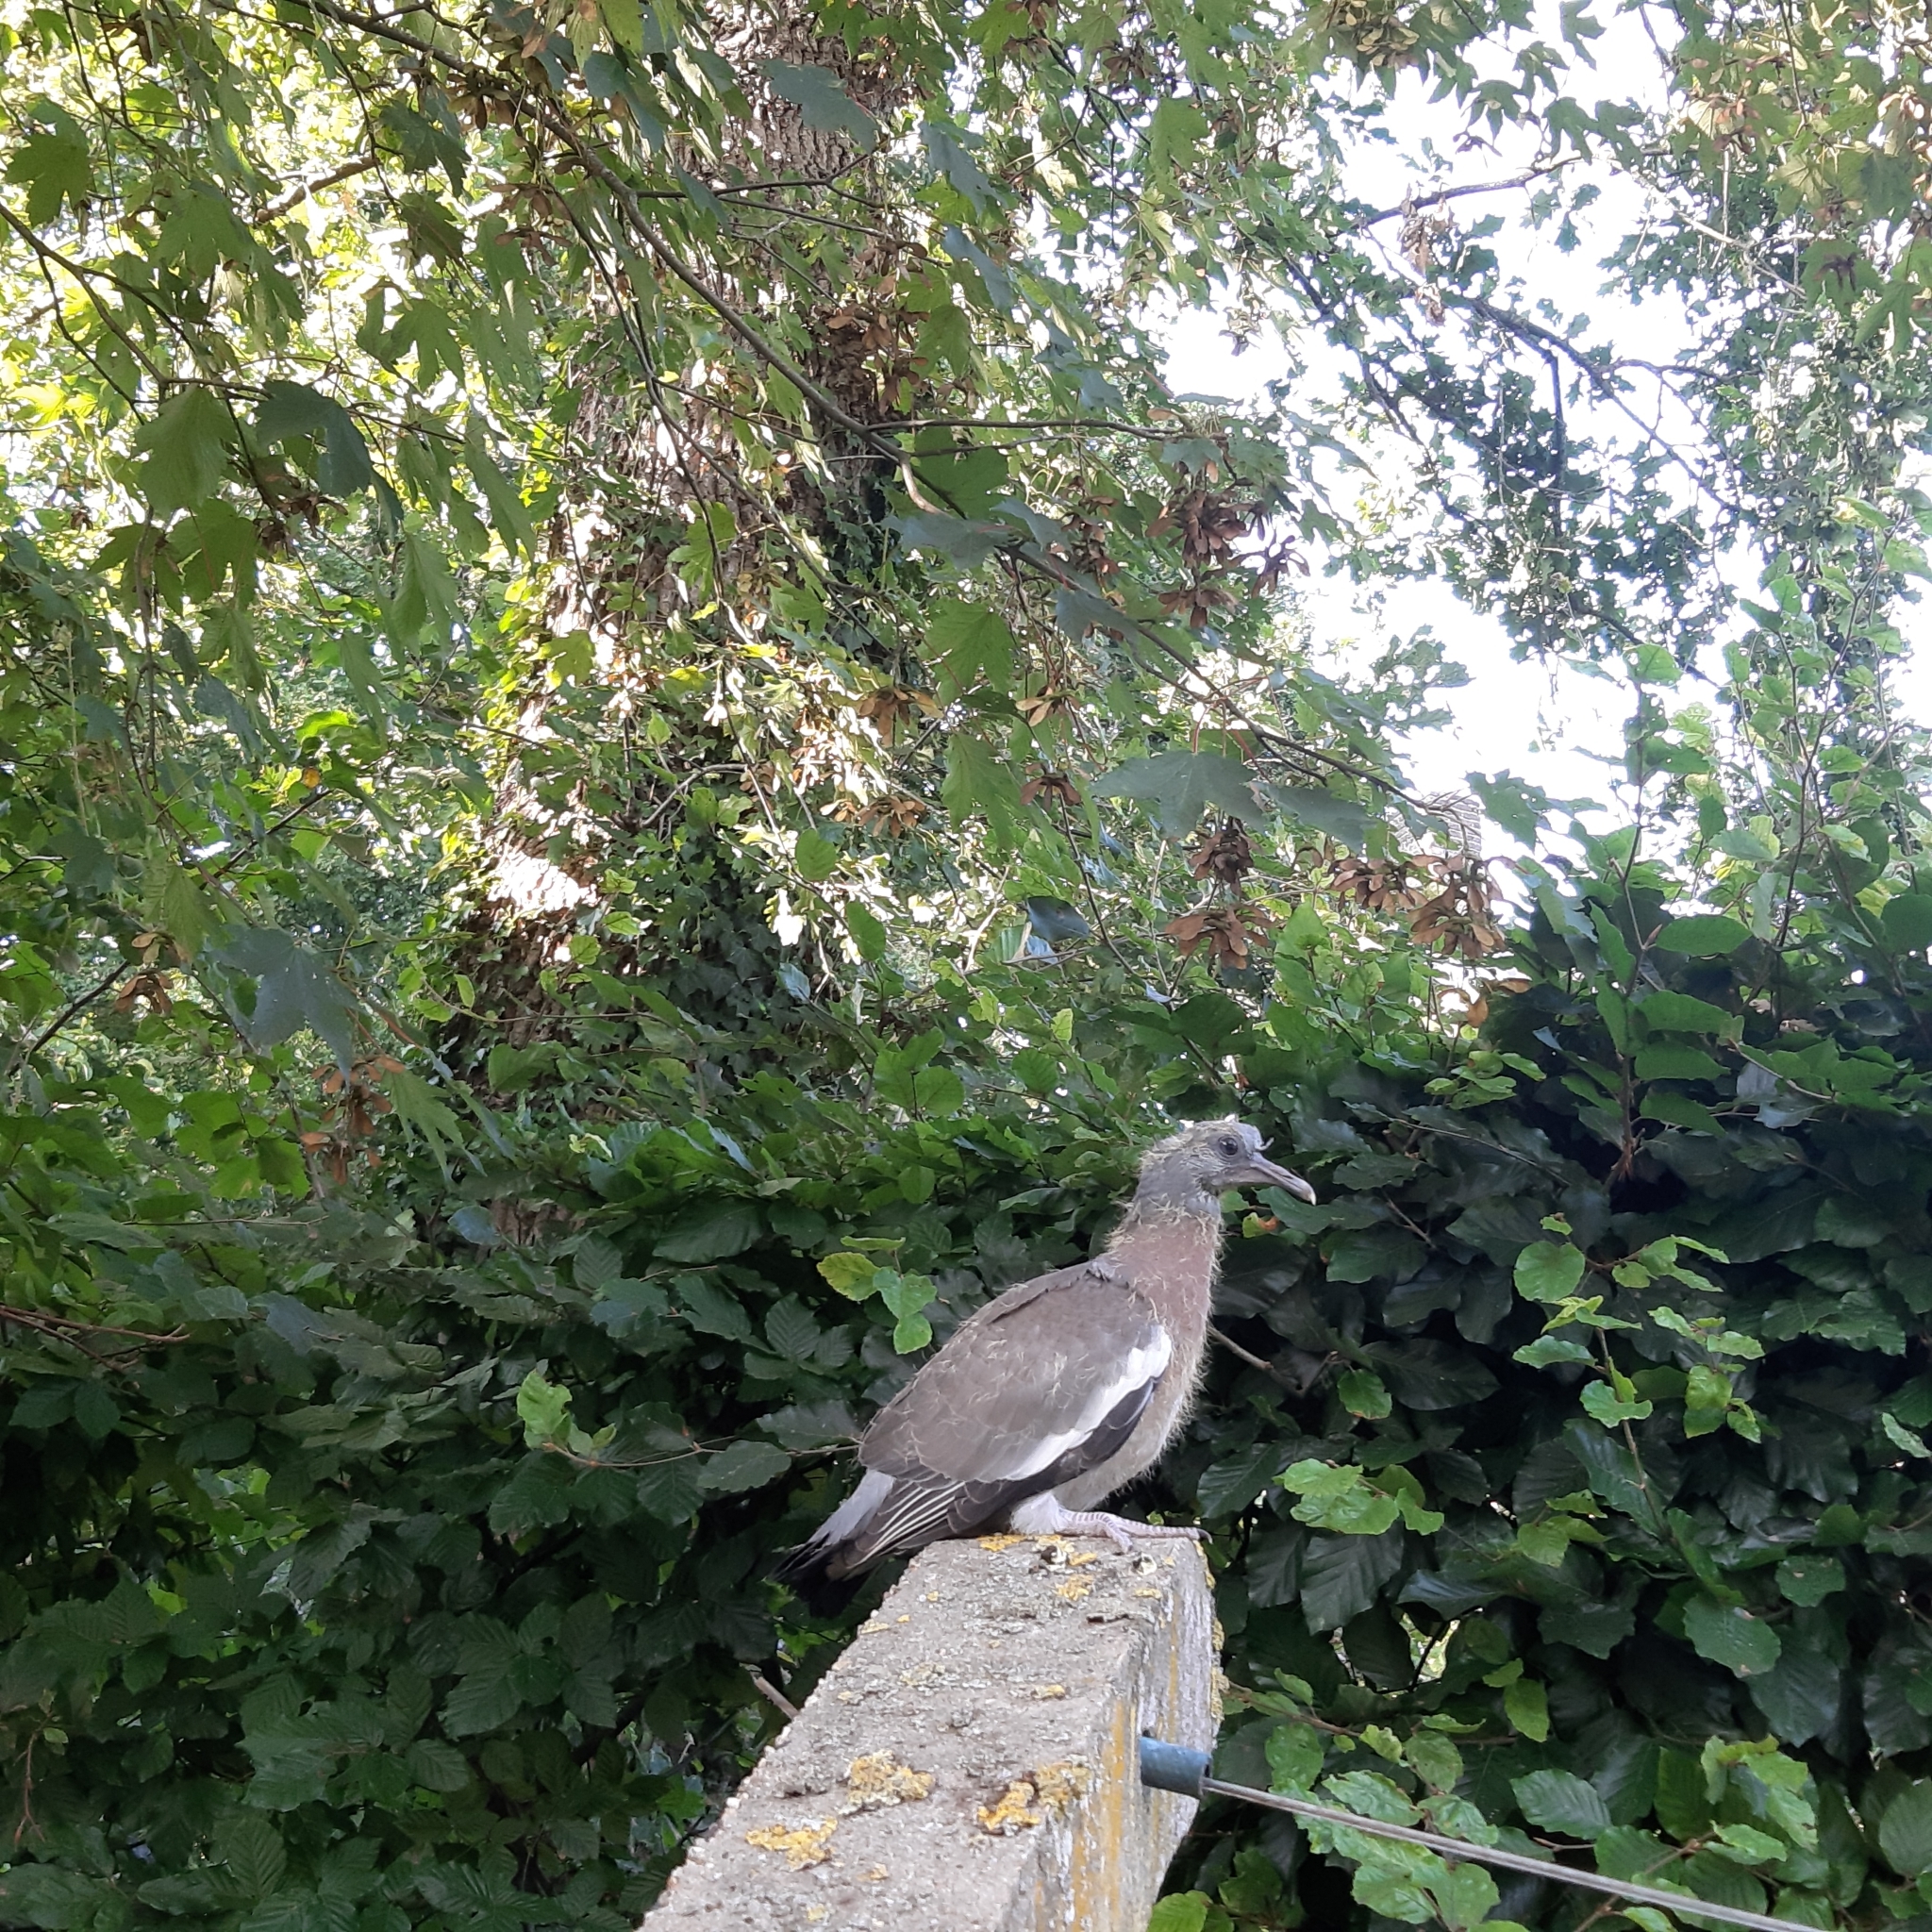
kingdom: Animalia
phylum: Chordata
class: Aves
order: Columbiformes
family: Columbidae
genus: Columba
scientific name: Columba palumbus
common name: Common wood pigeon
